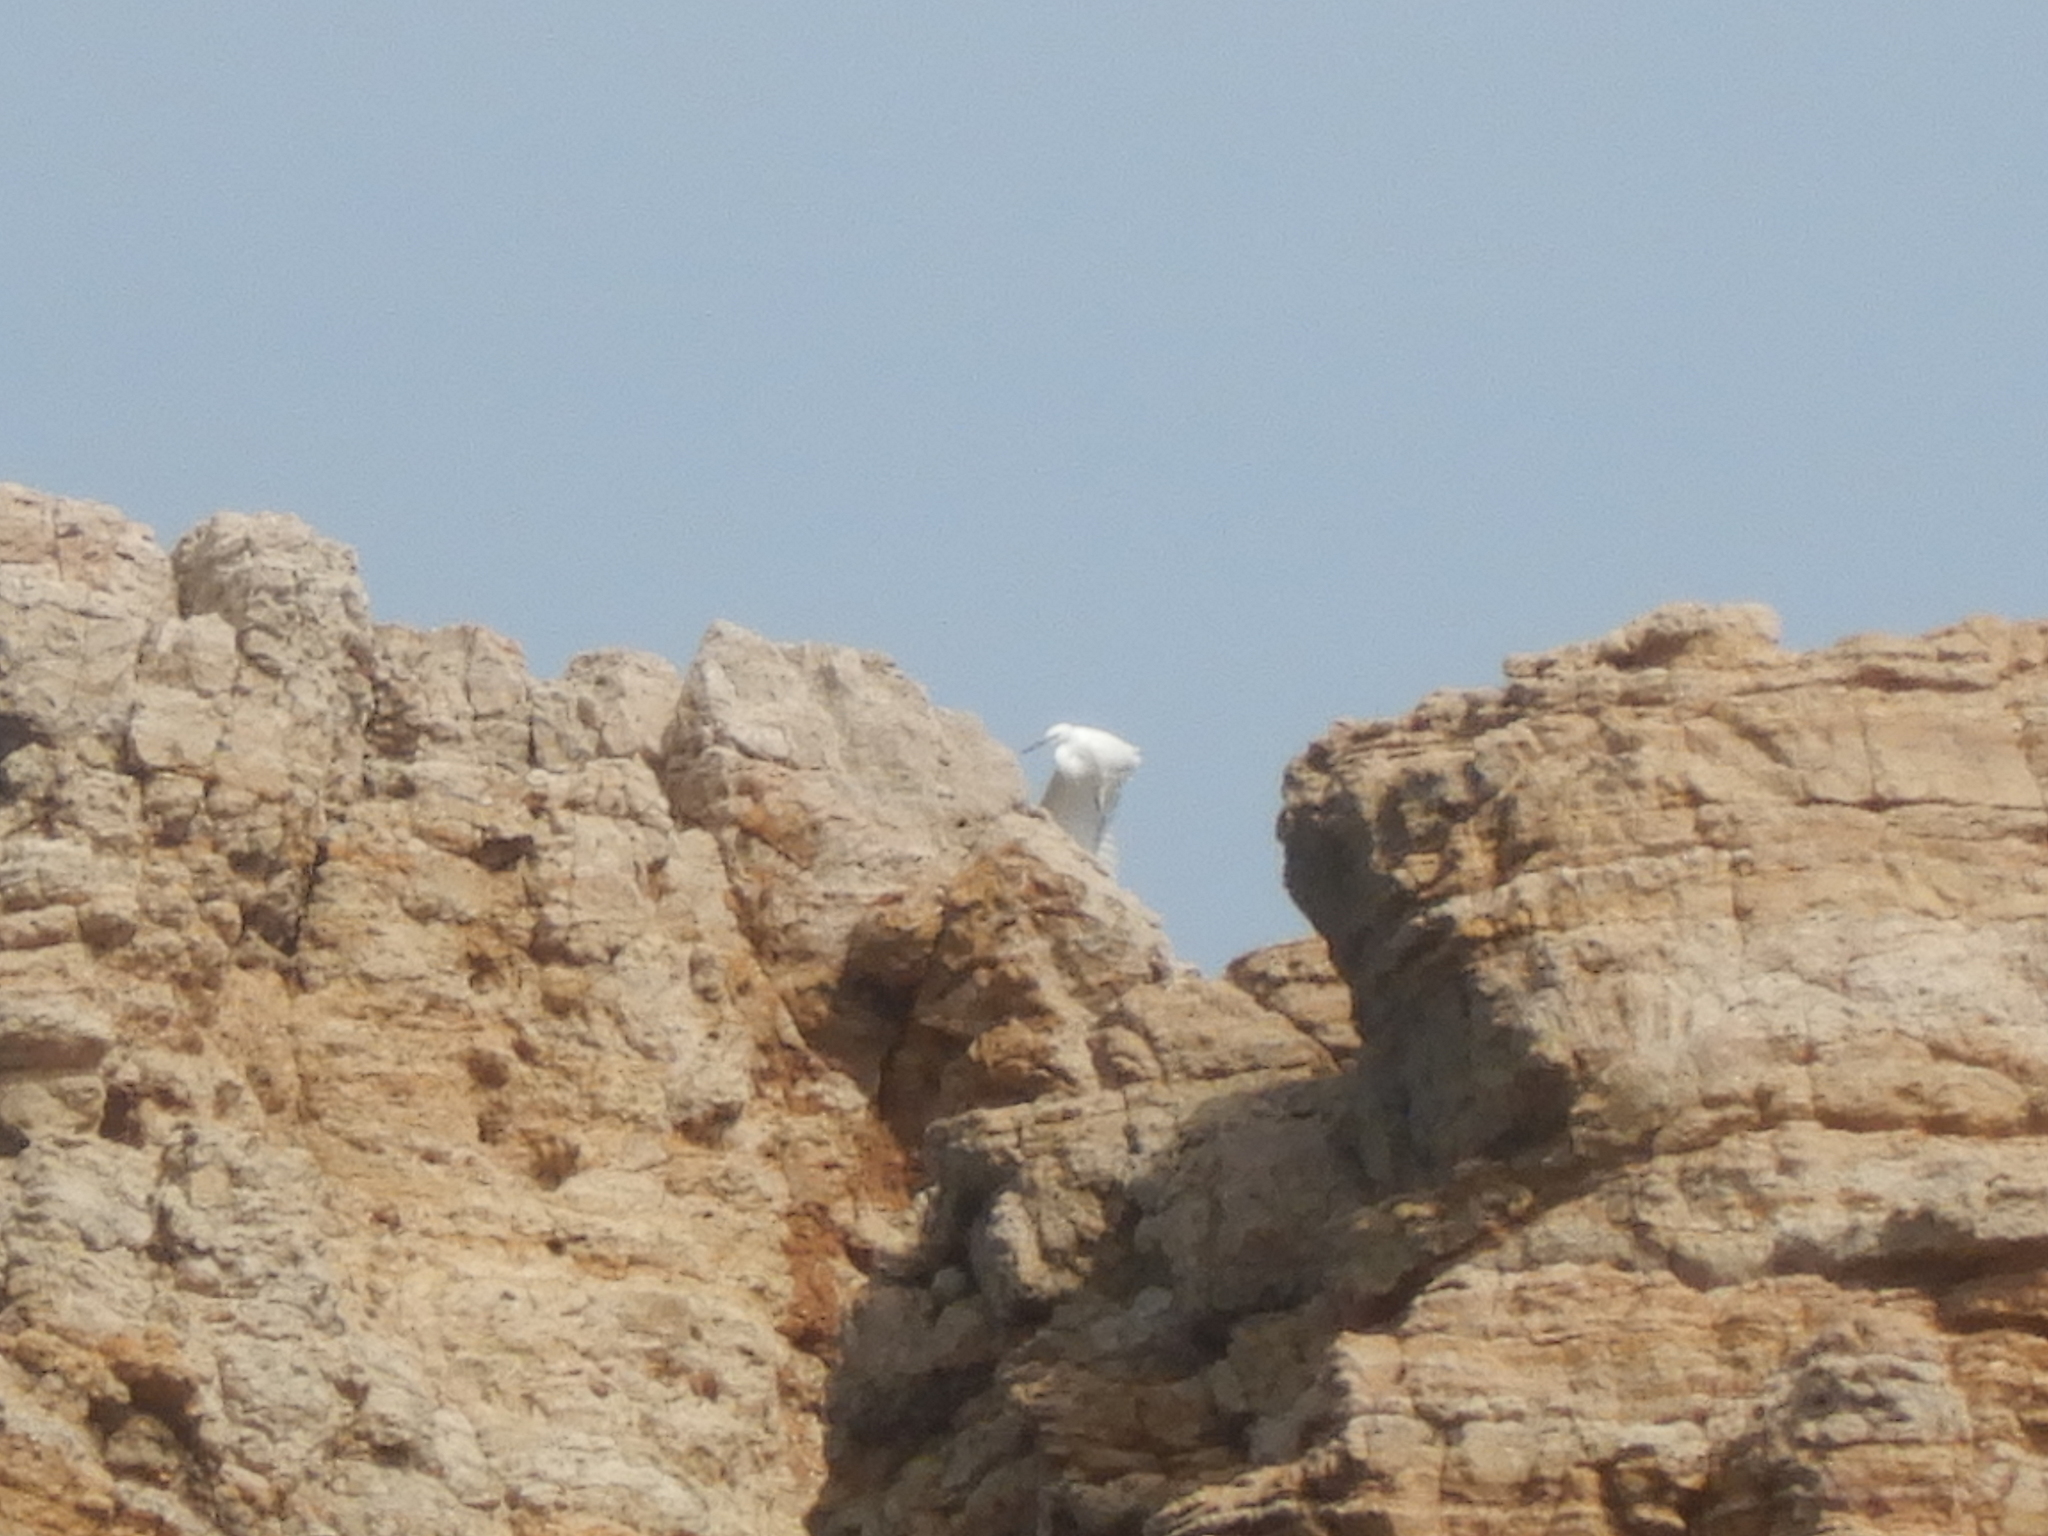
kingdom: Animalia
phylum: Chordata
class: Aves
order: Pelecaniformes
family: Ardeidae
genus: Egretta
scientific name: Egretta garzetta
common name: Little egret
